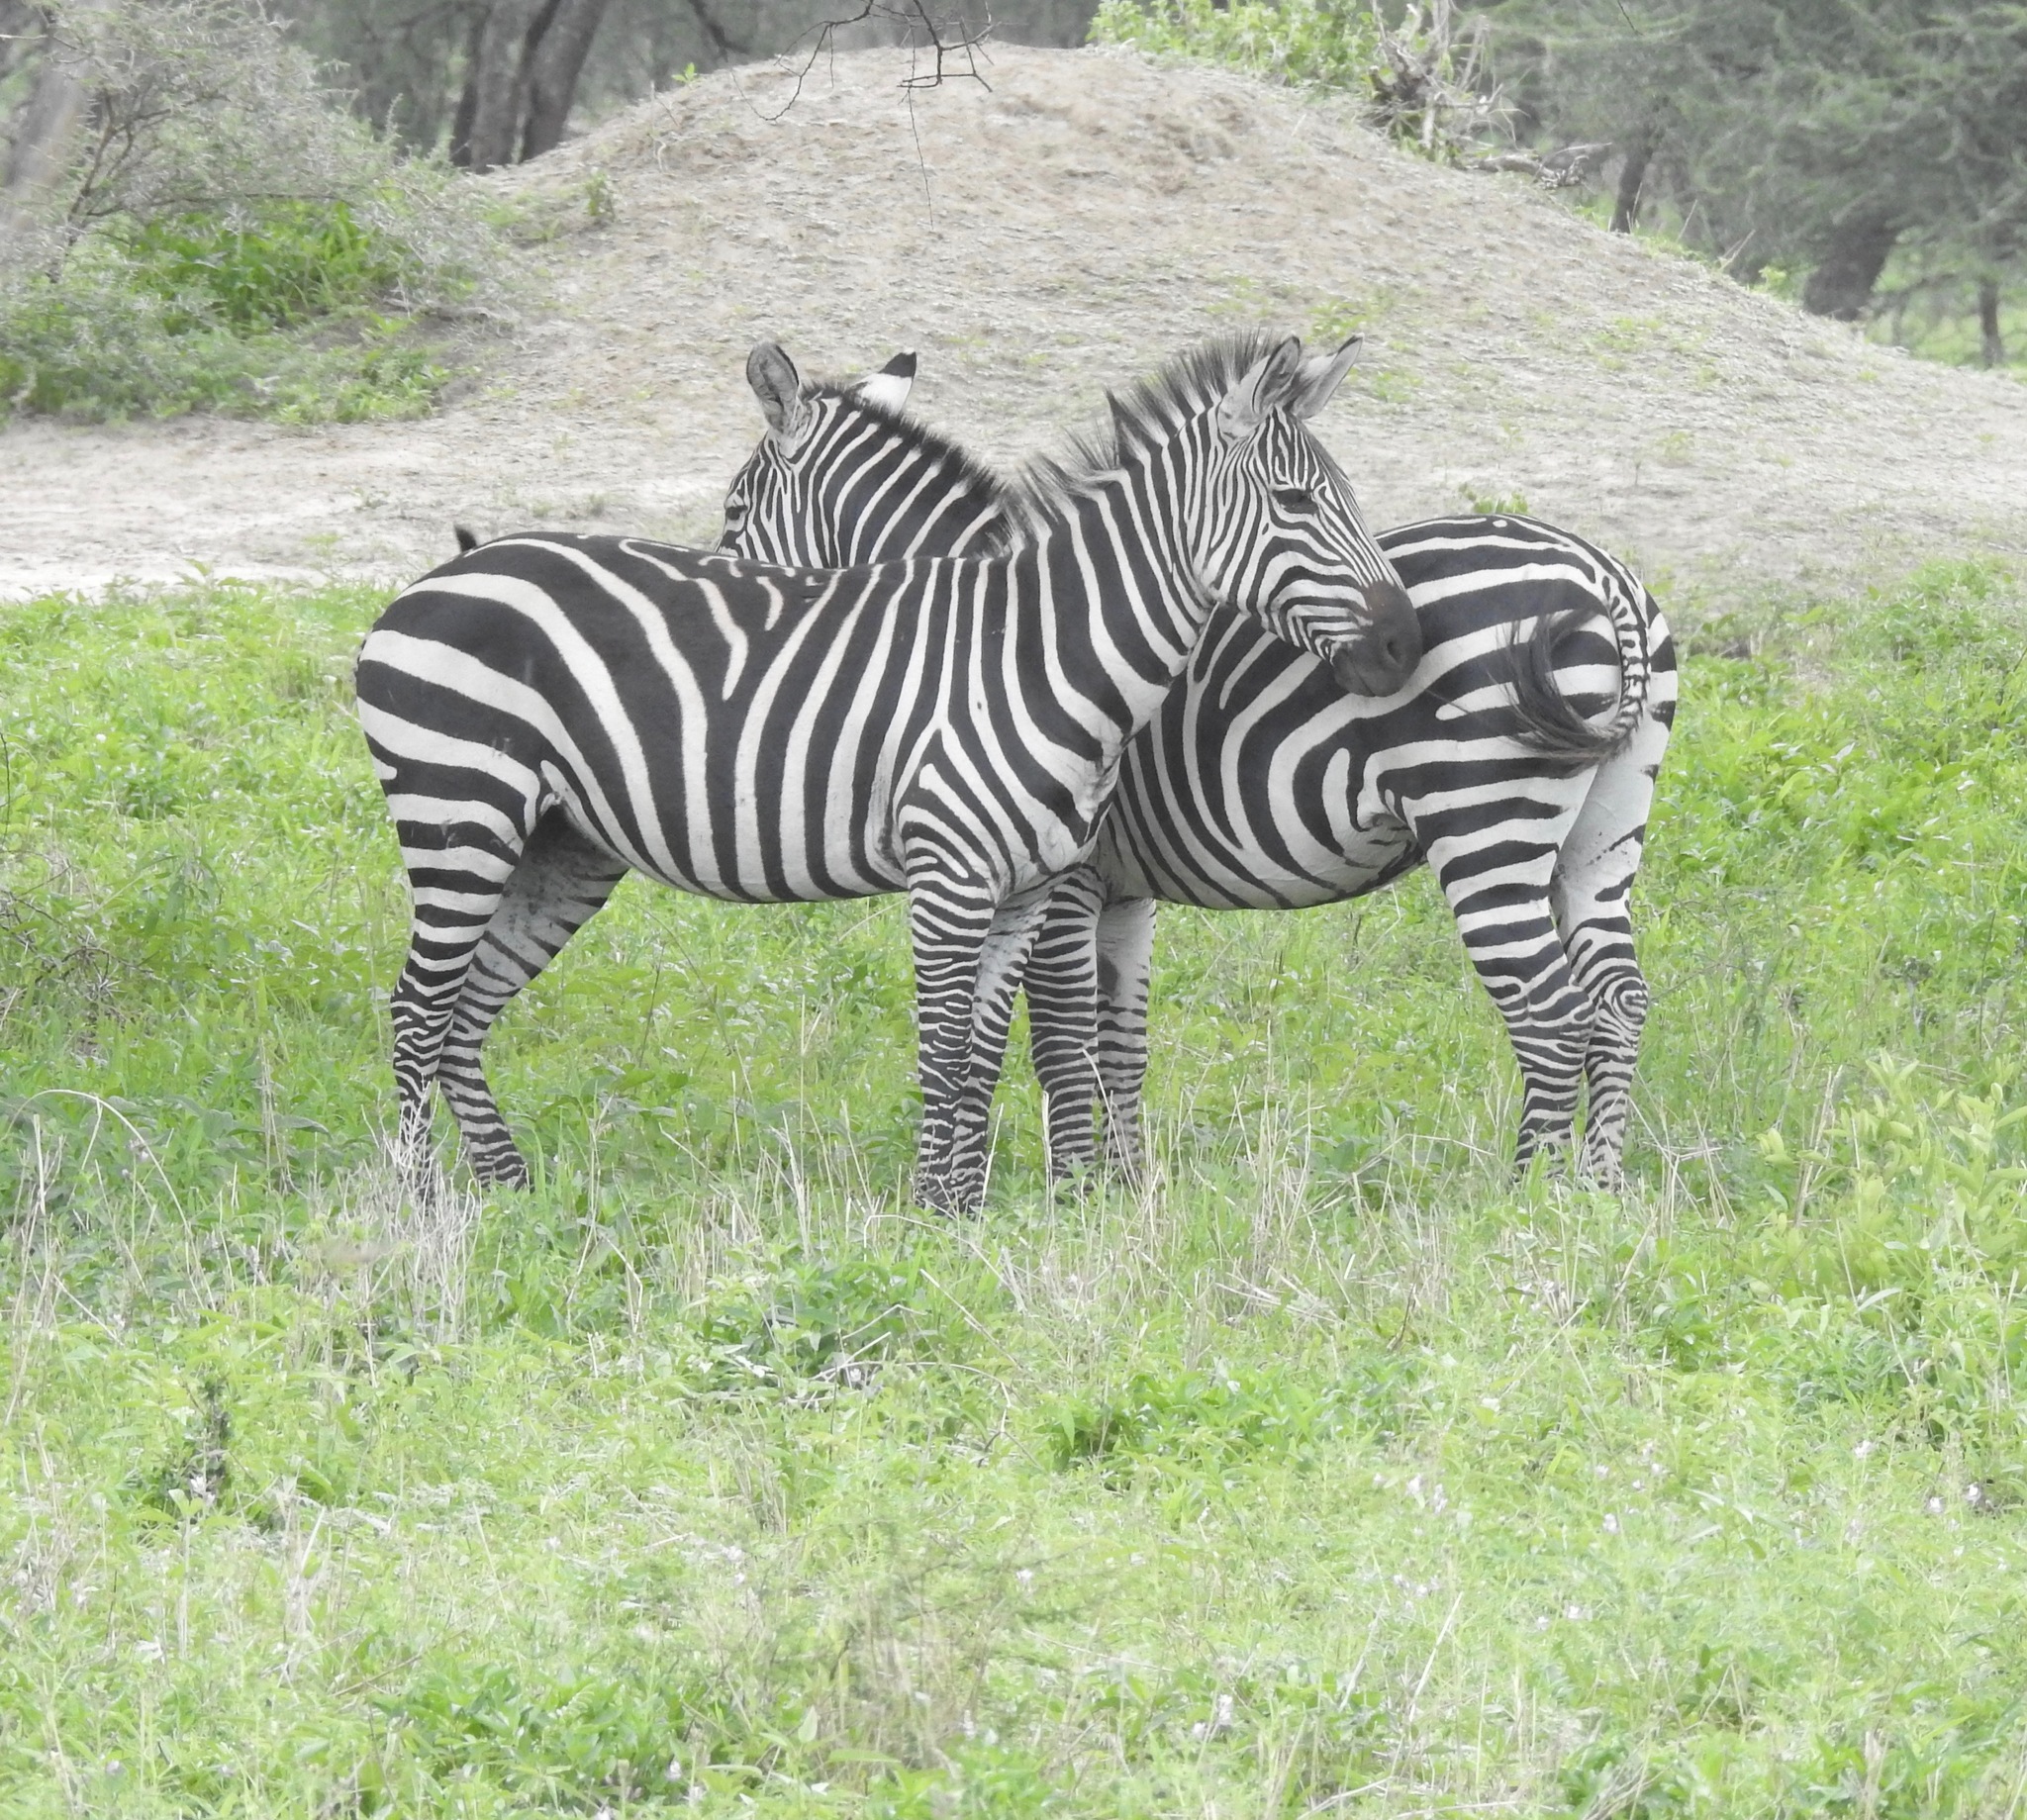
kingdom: Animalia
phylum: Chordata
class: Mammalia
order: Perissodactyla
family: Equidae
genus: Equus
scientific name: Equus quagga
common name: Plains zebra
